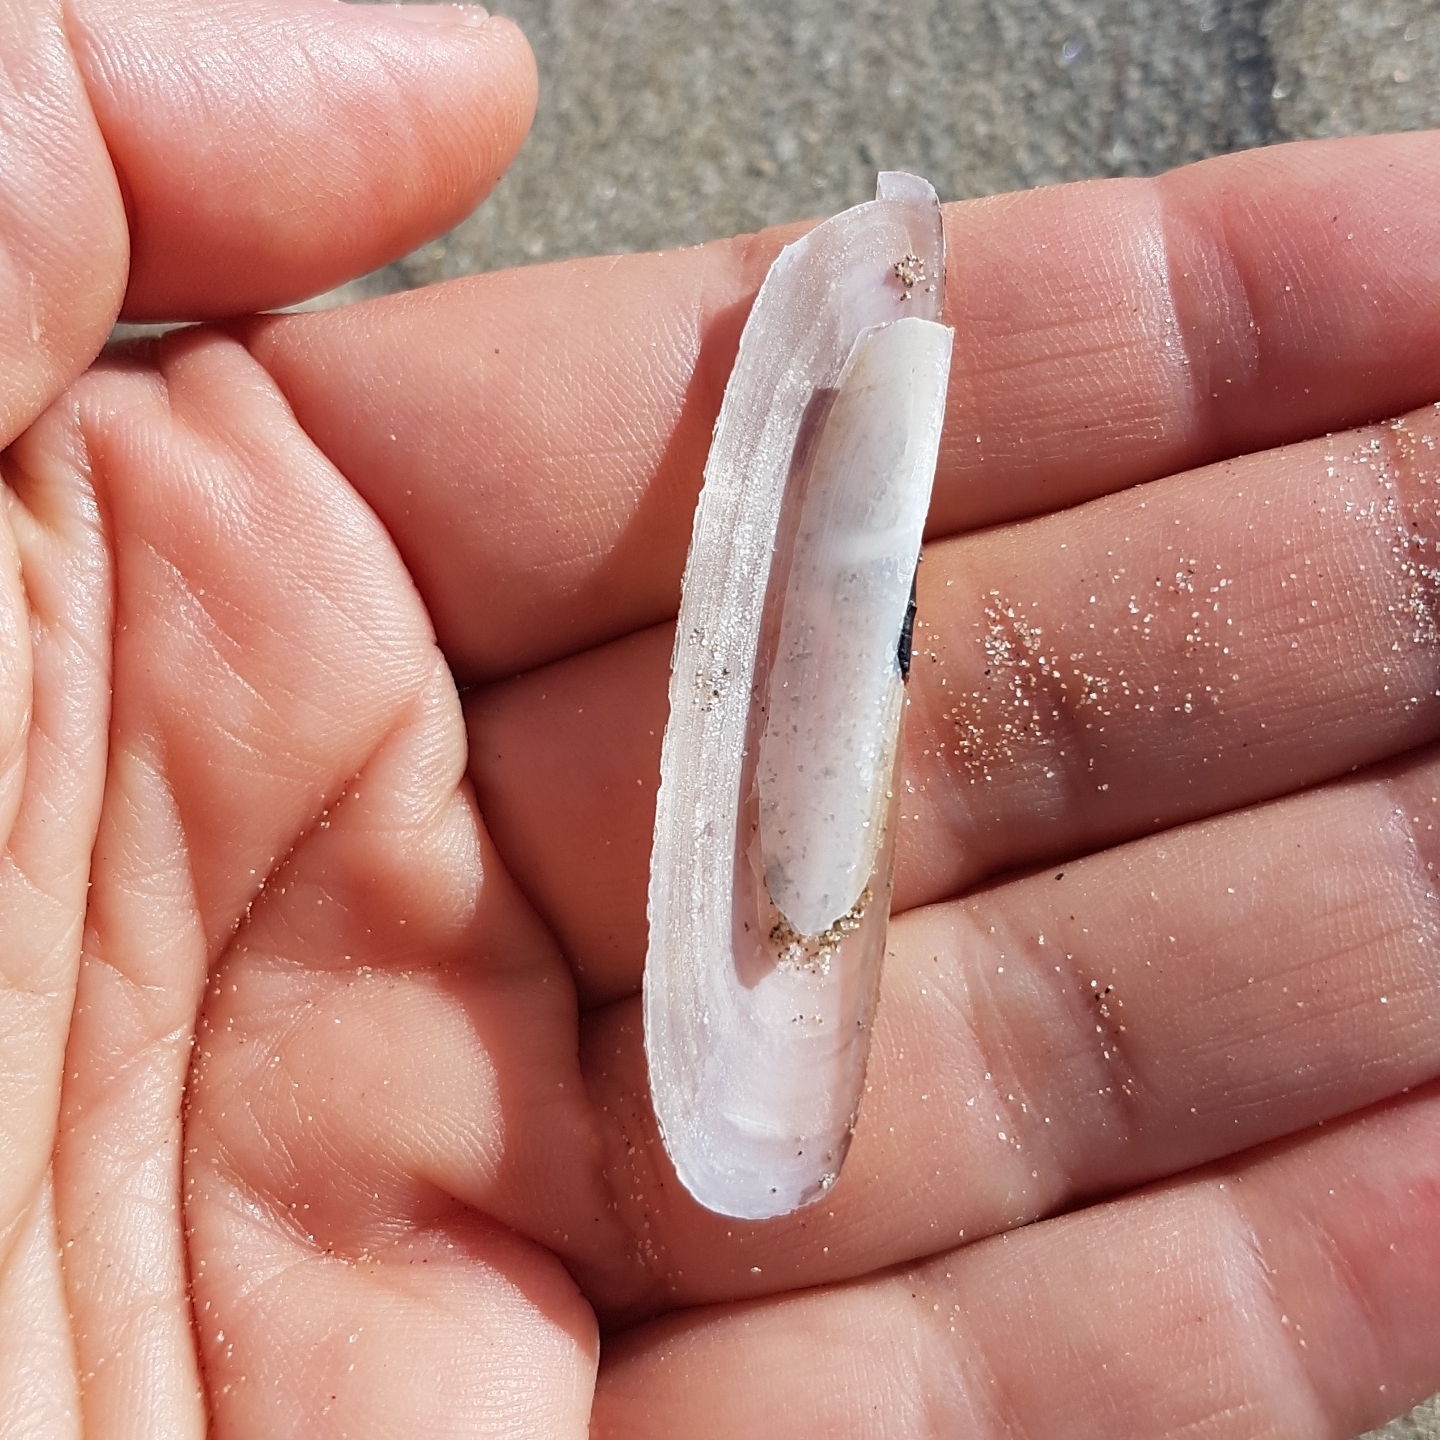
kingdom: Animalia
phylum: Mollusca
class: Bivalvia
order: Adapedonta
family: Pharidae
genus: Pharus
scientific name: Pharus legumen
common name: Bean razor clam
